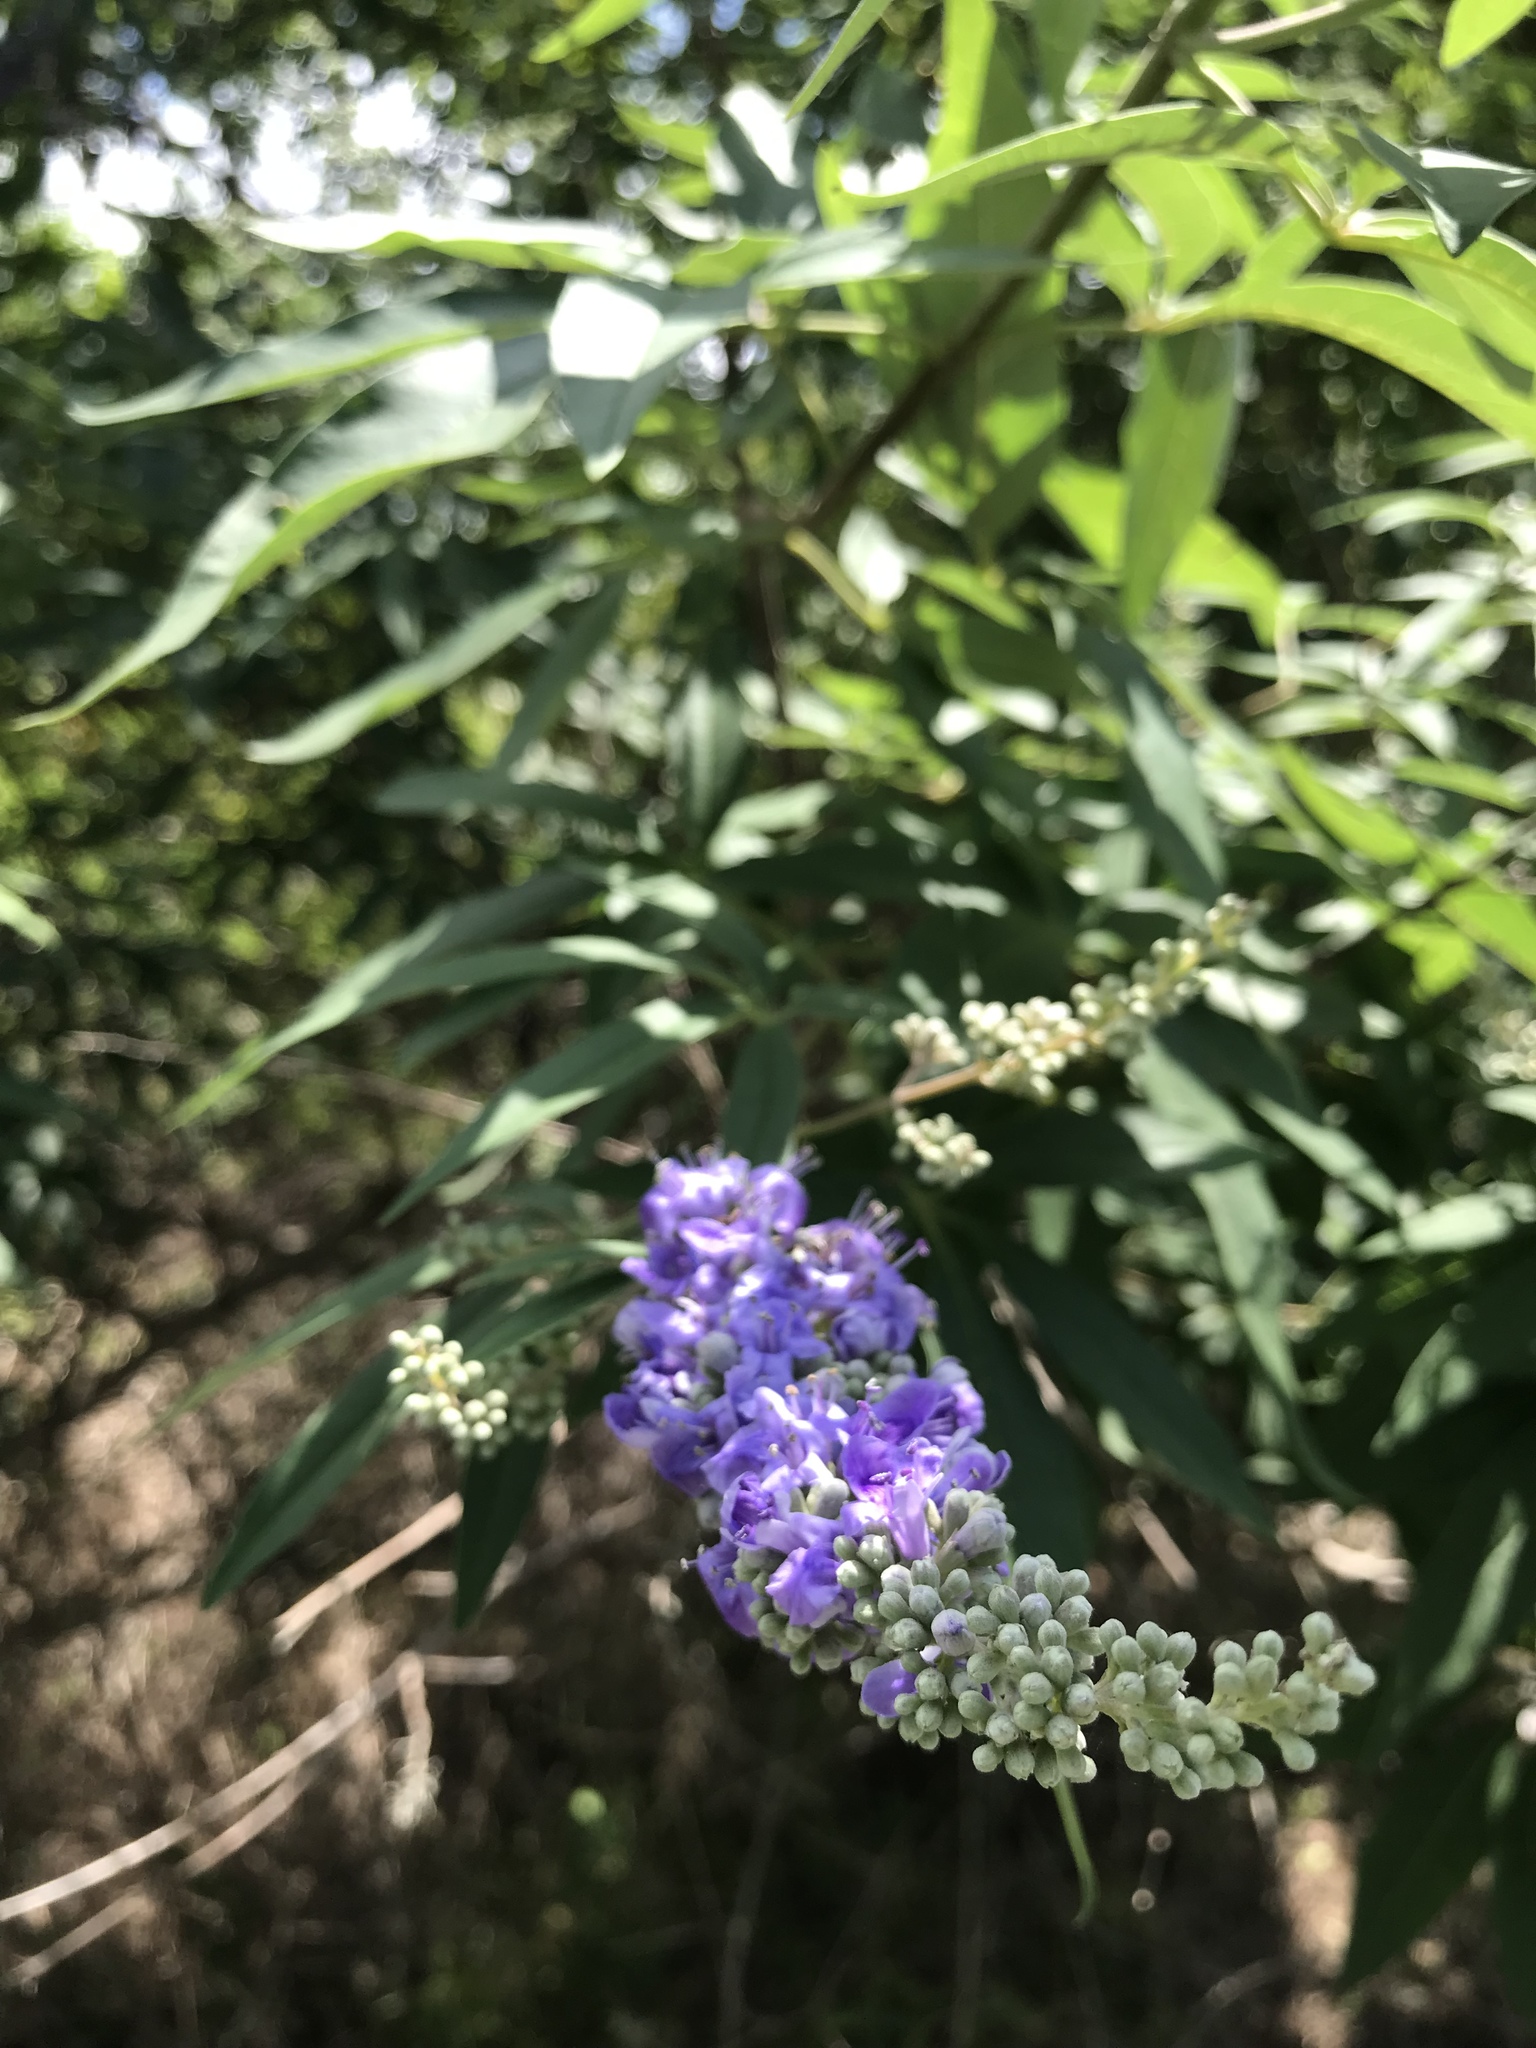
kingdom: Plantae
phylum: Tracheophyta
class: Magnoliopsida
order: Lamiales
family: Lamiaceae
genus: Vitex
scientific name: Vitex agnus-castus
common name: Chasteberry
